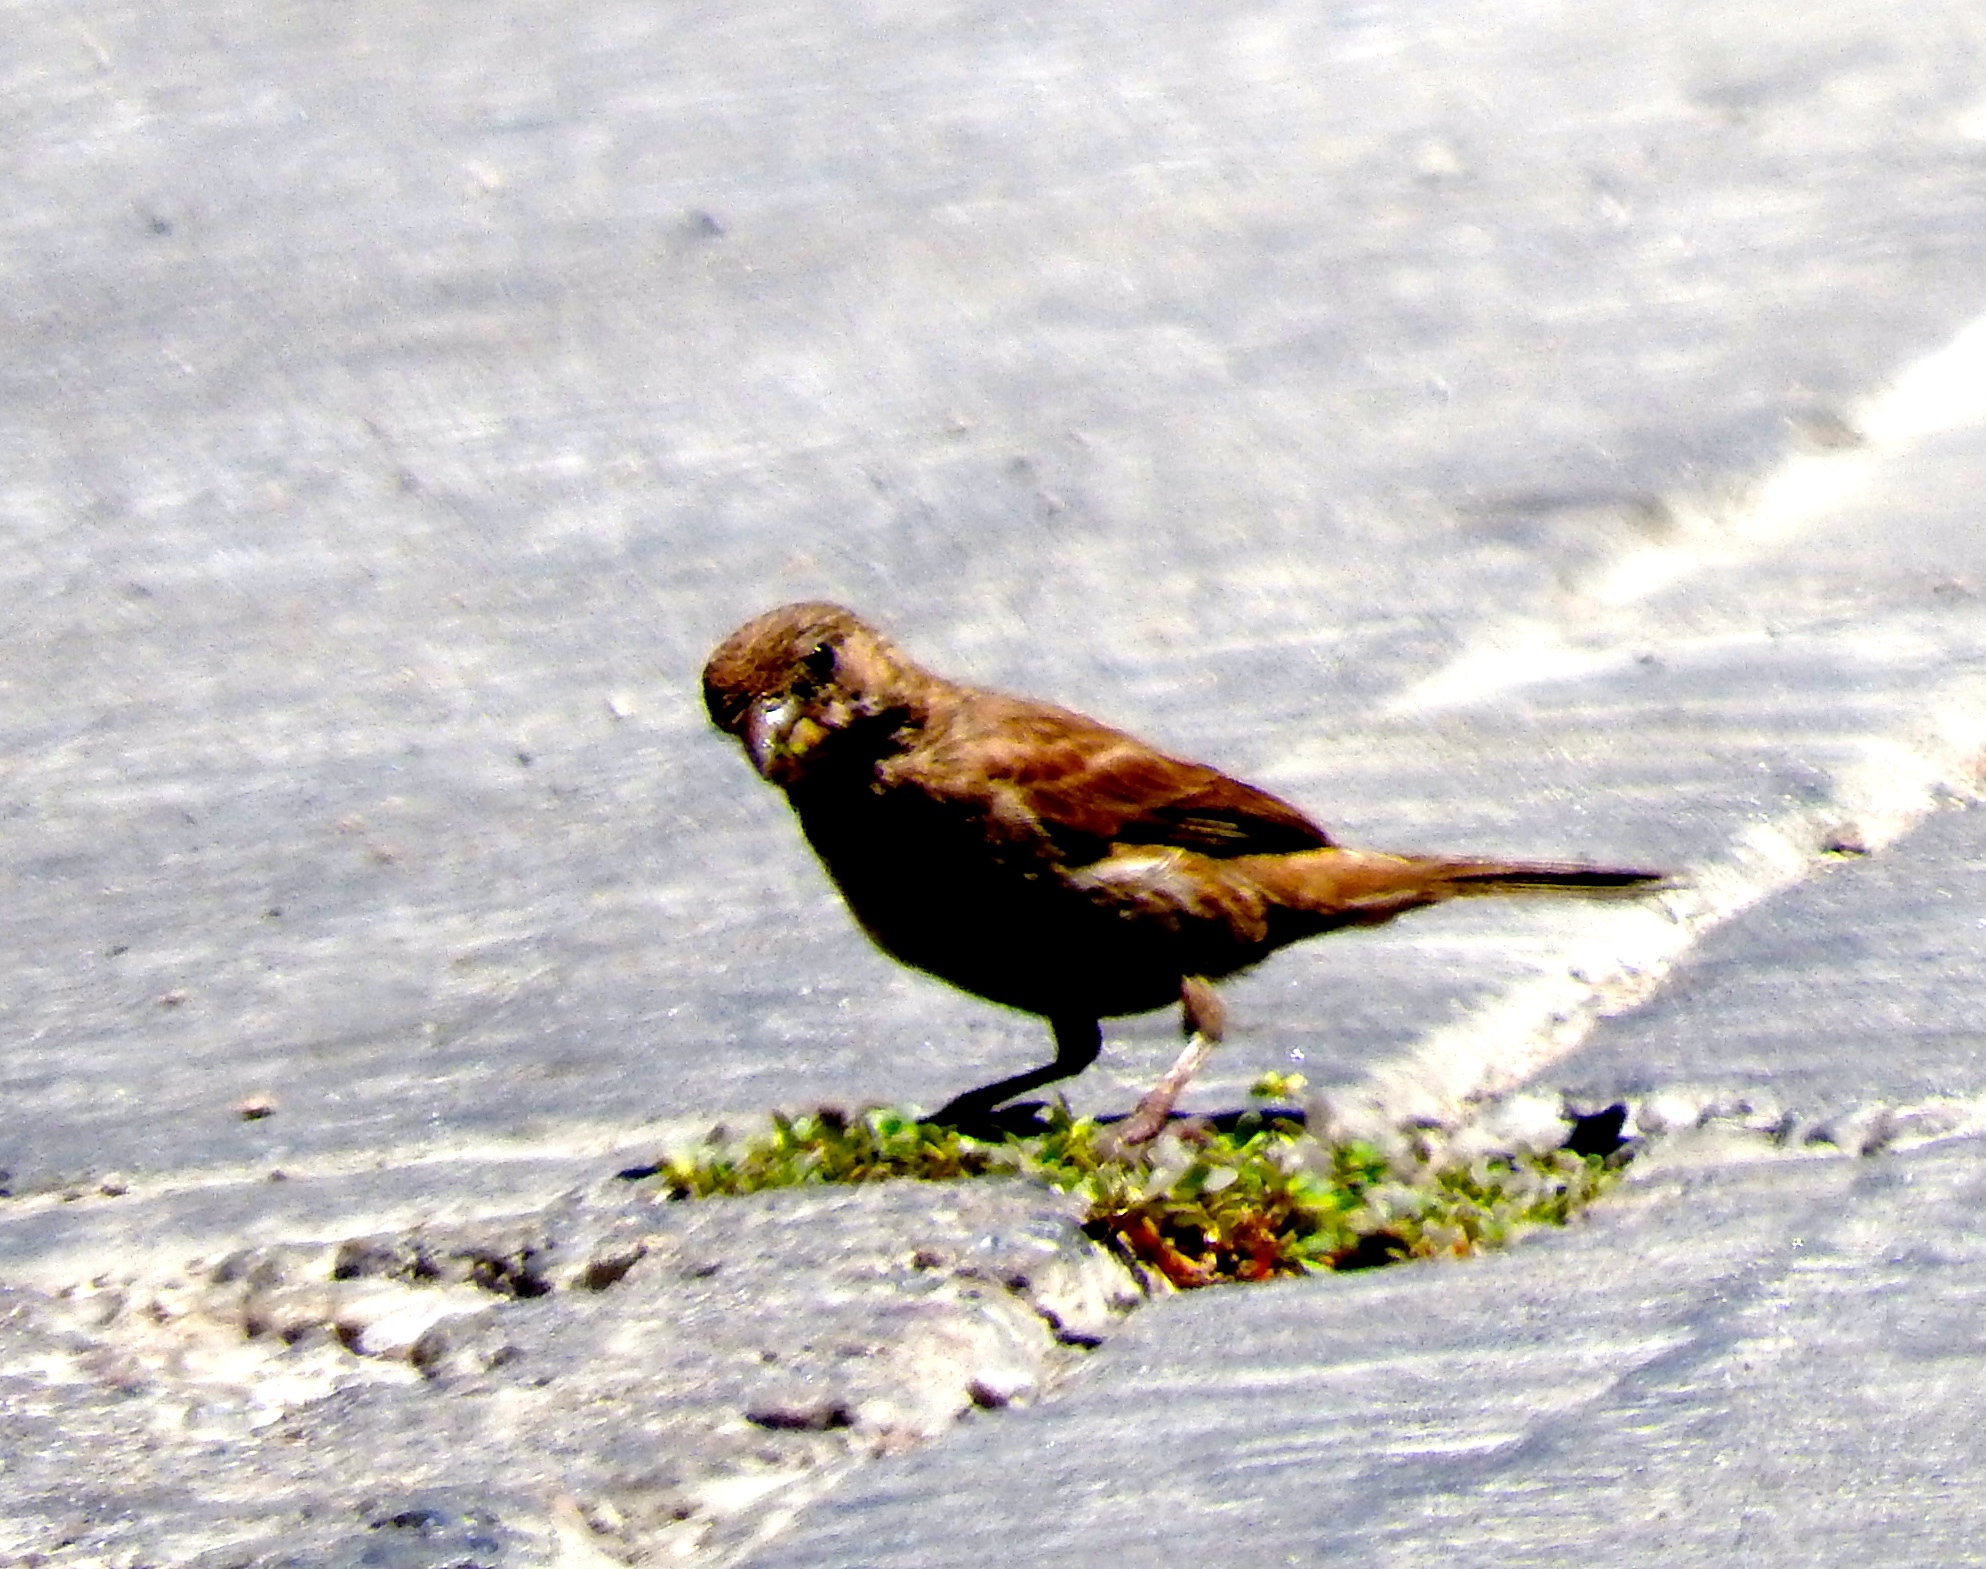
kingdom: Animalia
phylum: Chordata
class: Aves
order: Passeriformes
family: Passeridae
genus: Passer
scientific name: Passer domesticus
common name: House sparrow
